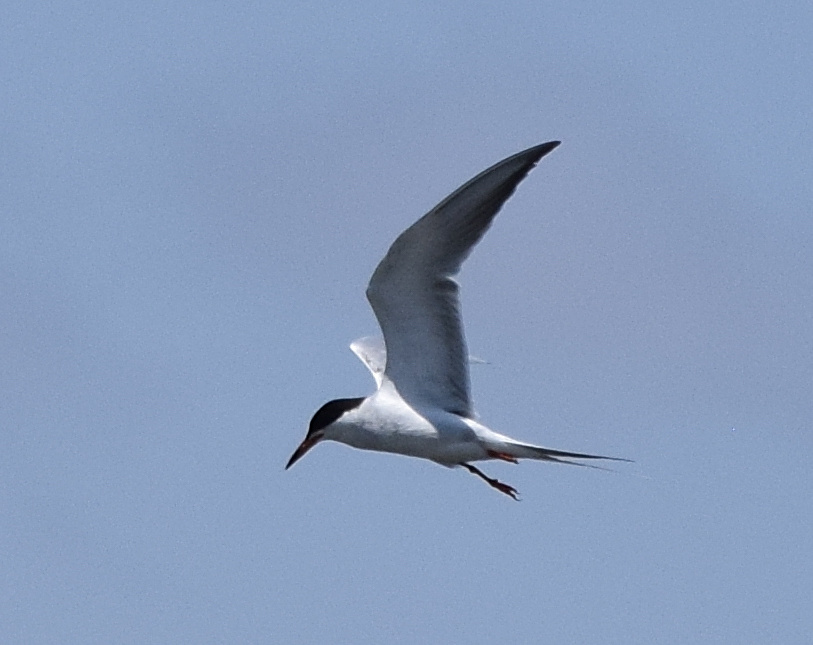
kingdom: Animalia
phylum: Chordata
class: Aves
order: Charadriiformes
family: Laridae
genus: Sterna
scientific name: Sterna forsteri
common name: Forster's tern
